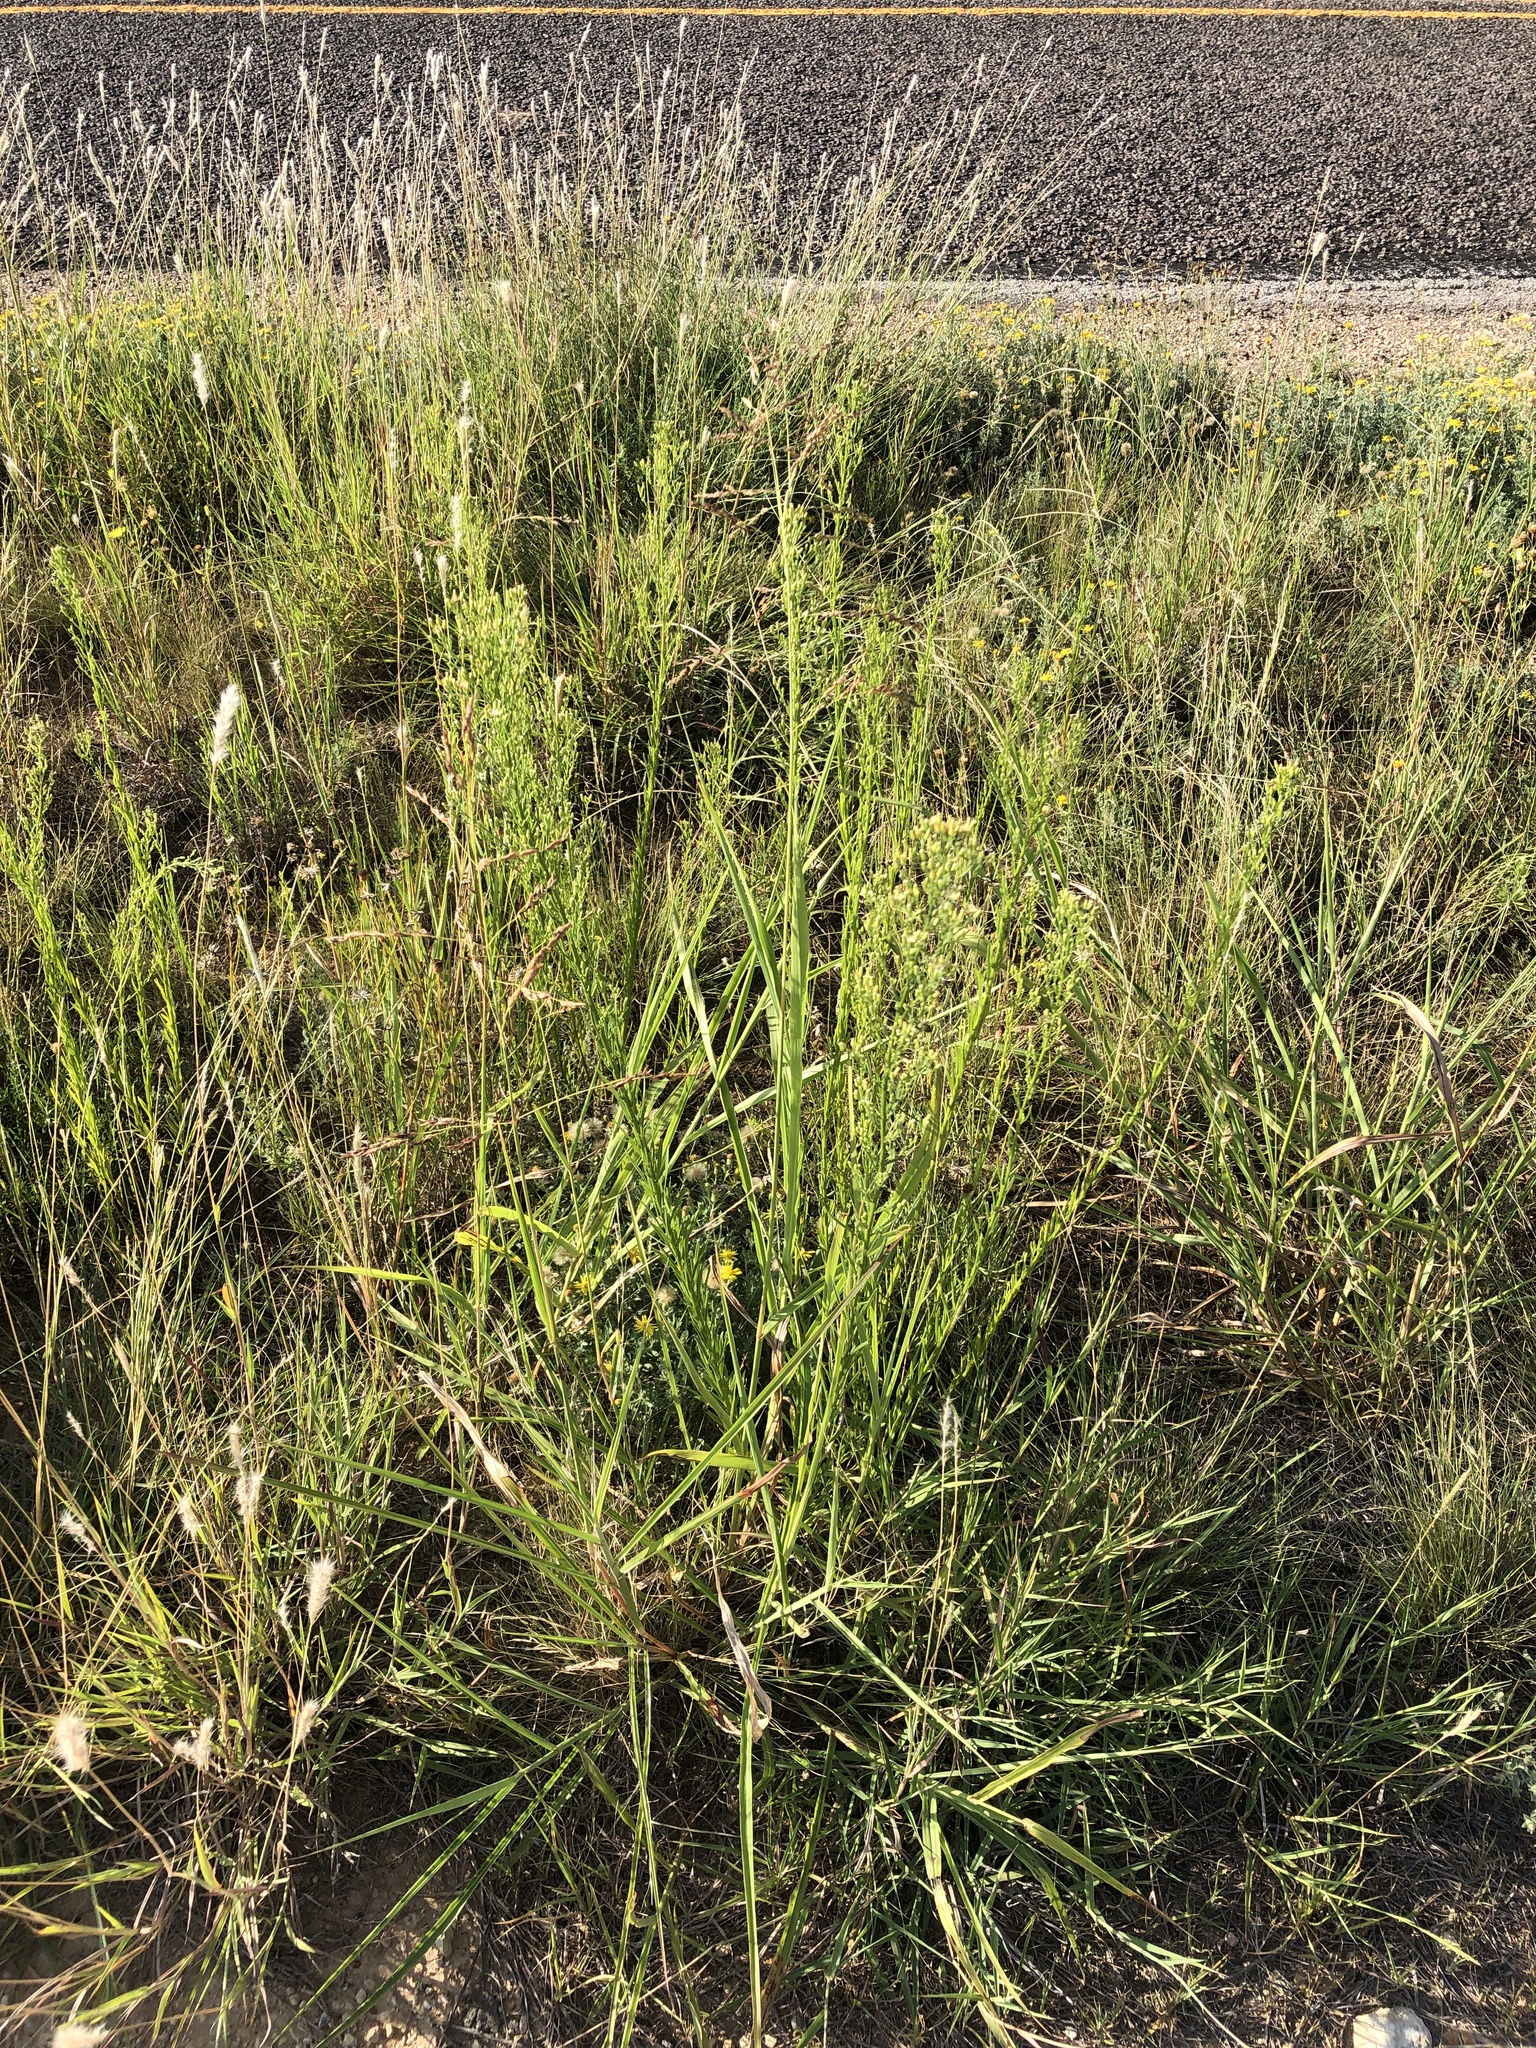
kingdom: Plantae
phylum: Tracheophyta
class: Magnoliopsida
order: Asterales
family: Asteraceae
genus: Erigeron
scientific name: Erigeron canadensis
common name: Canadian fleabane
